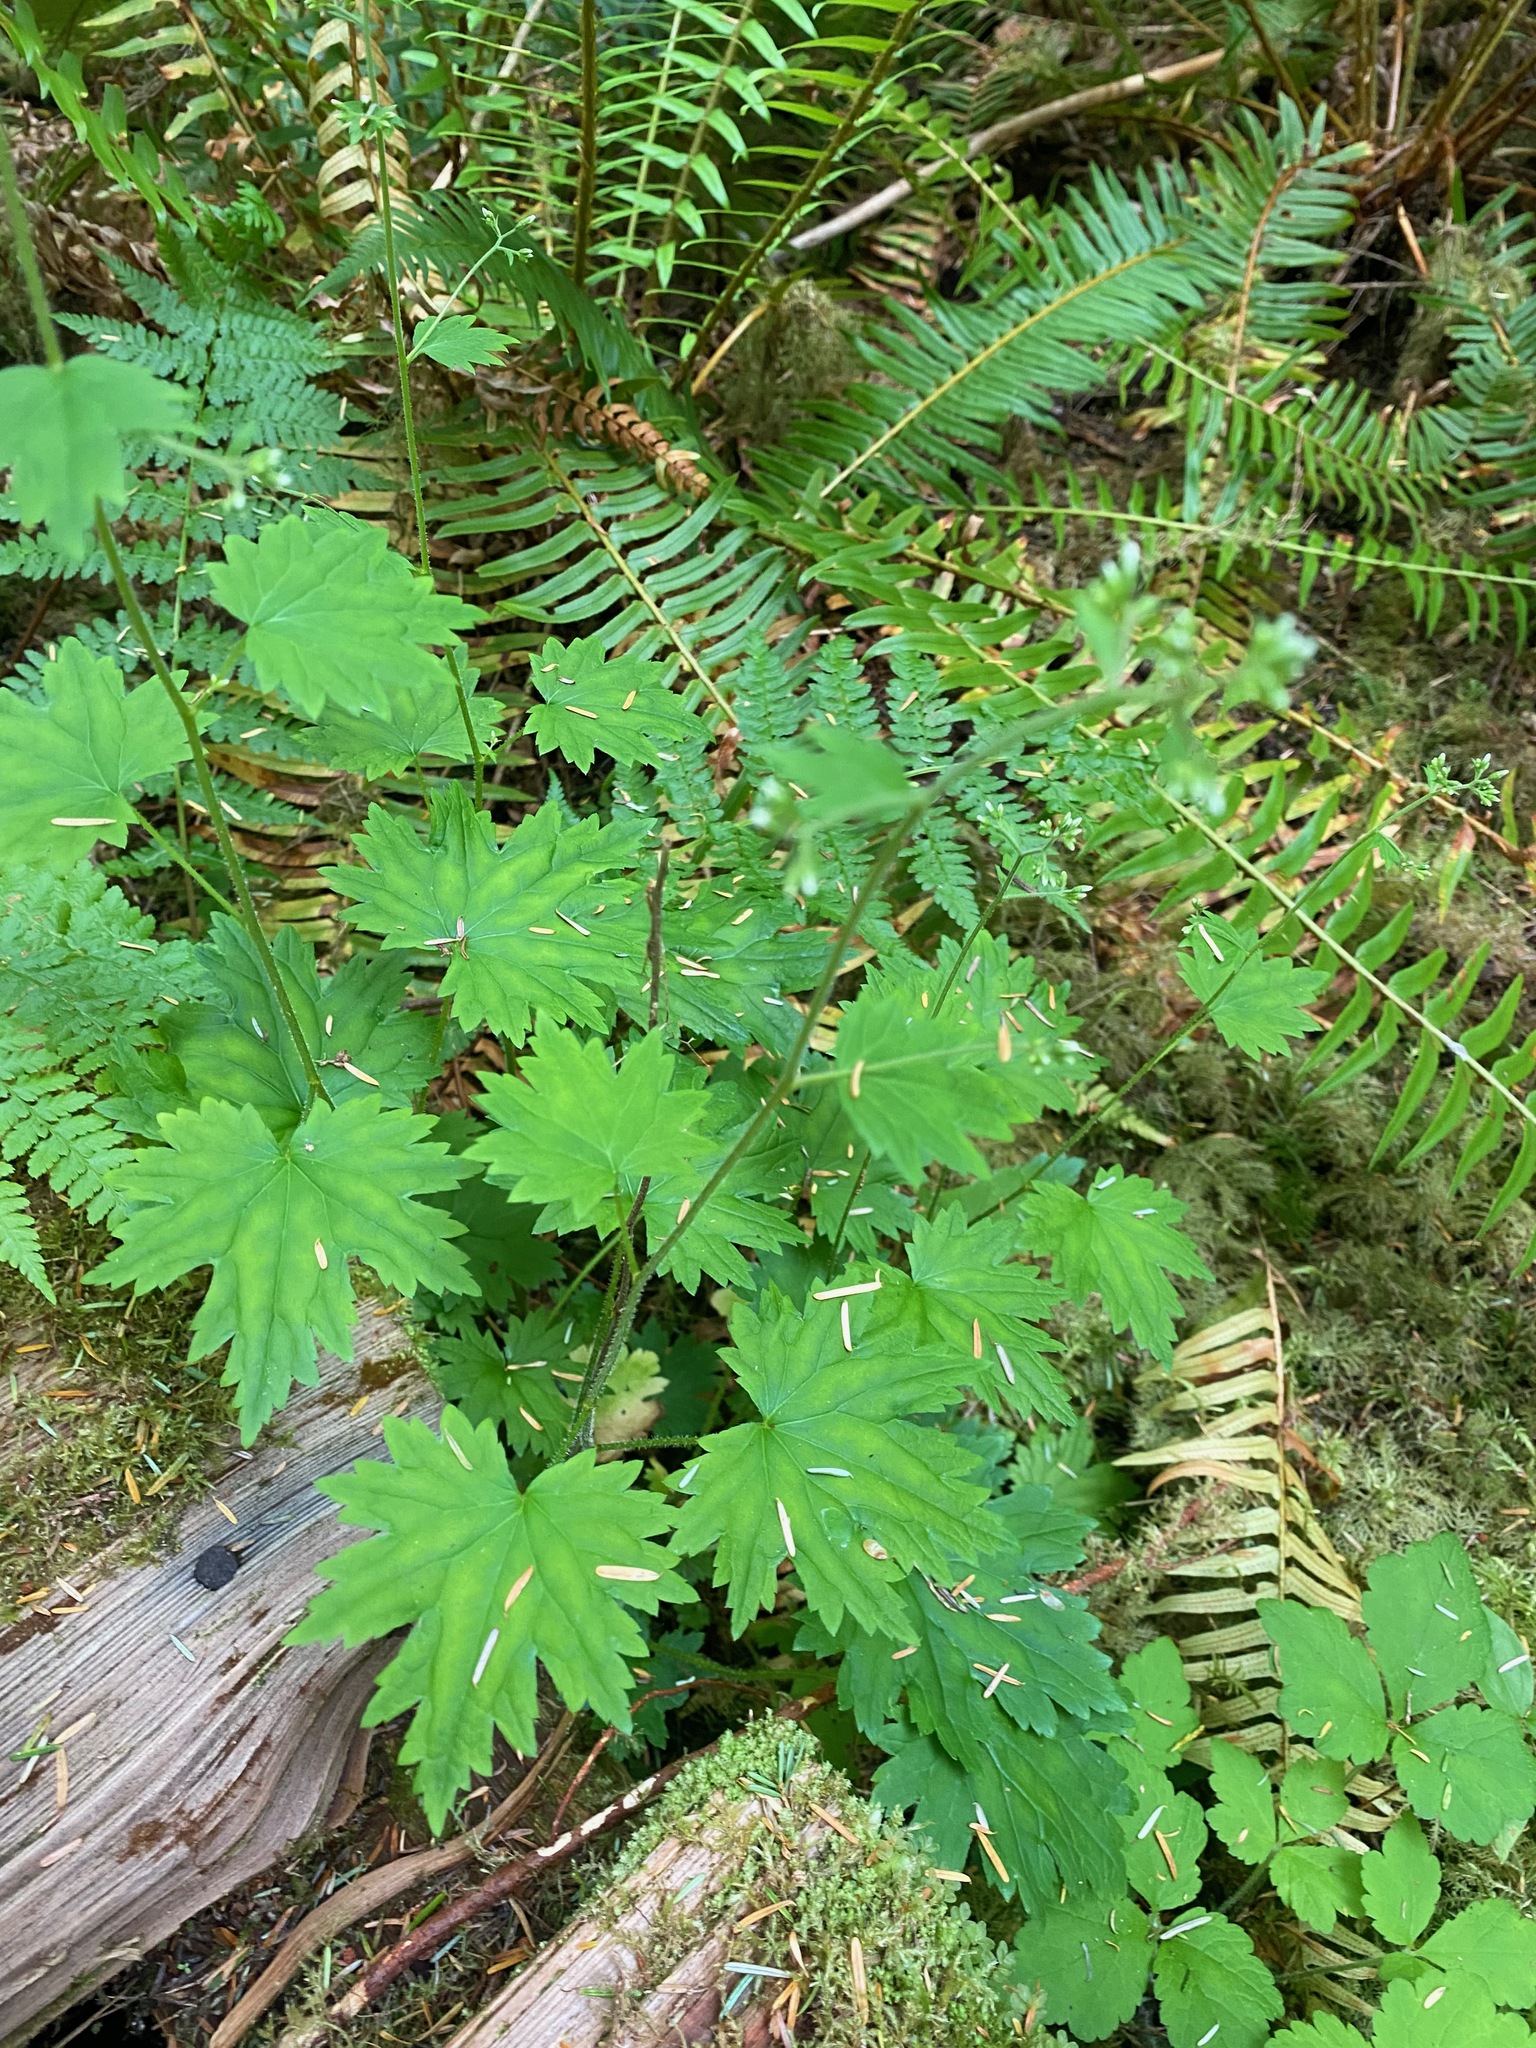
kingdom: Plantae
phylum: Tracheophyta
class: Magnoliopsida
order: Saxifragales
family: Saxifragaceae
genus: Boykinia
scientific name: Boykinia occidentalis
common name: Coast boykinia
